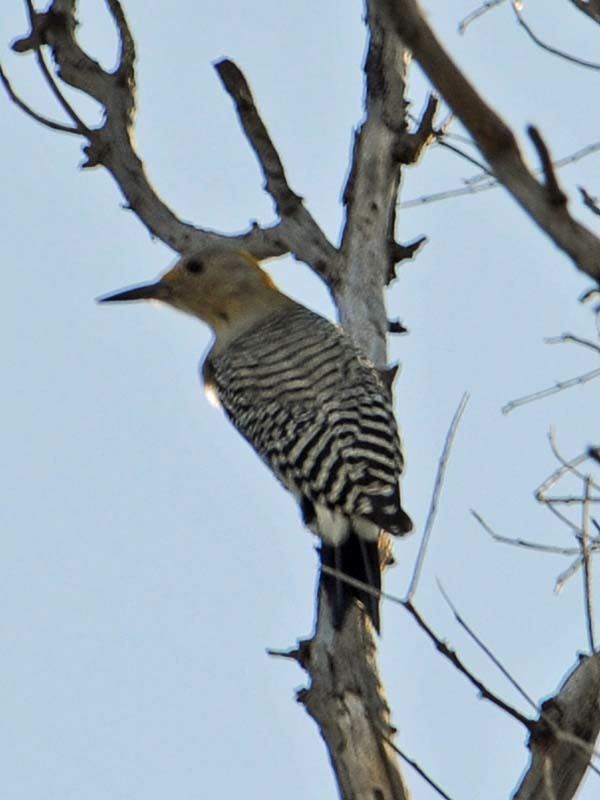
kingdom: Animalia
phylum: Chordata
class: Aves
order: Piciformes
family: Picidae
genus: Melanerpes
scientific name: Melanerpes aurifrons
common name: Golden-fronted woodpecker
